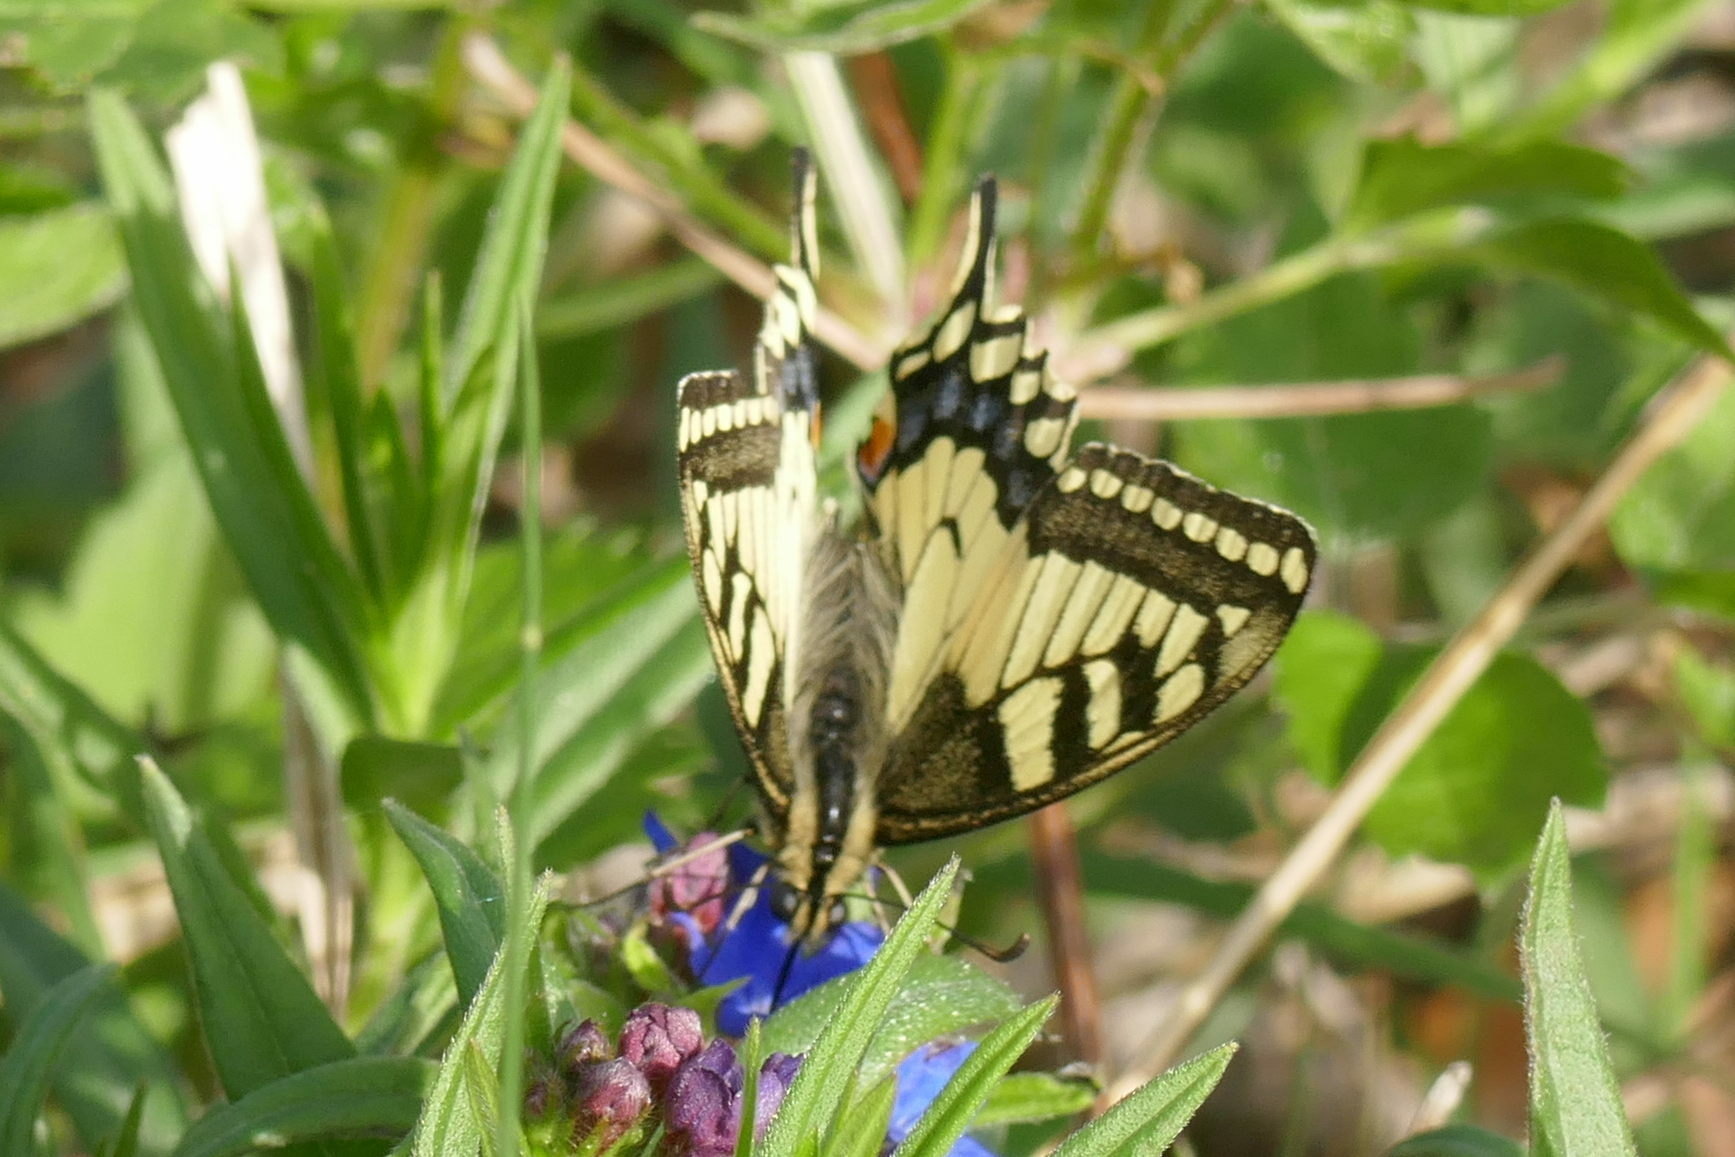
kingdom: Animalia
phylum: Arthropoda
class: Insecta
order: Lepidoptera
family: Papilionidae
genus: Papilio
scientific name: Papilio machaon
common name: Swallowtail
